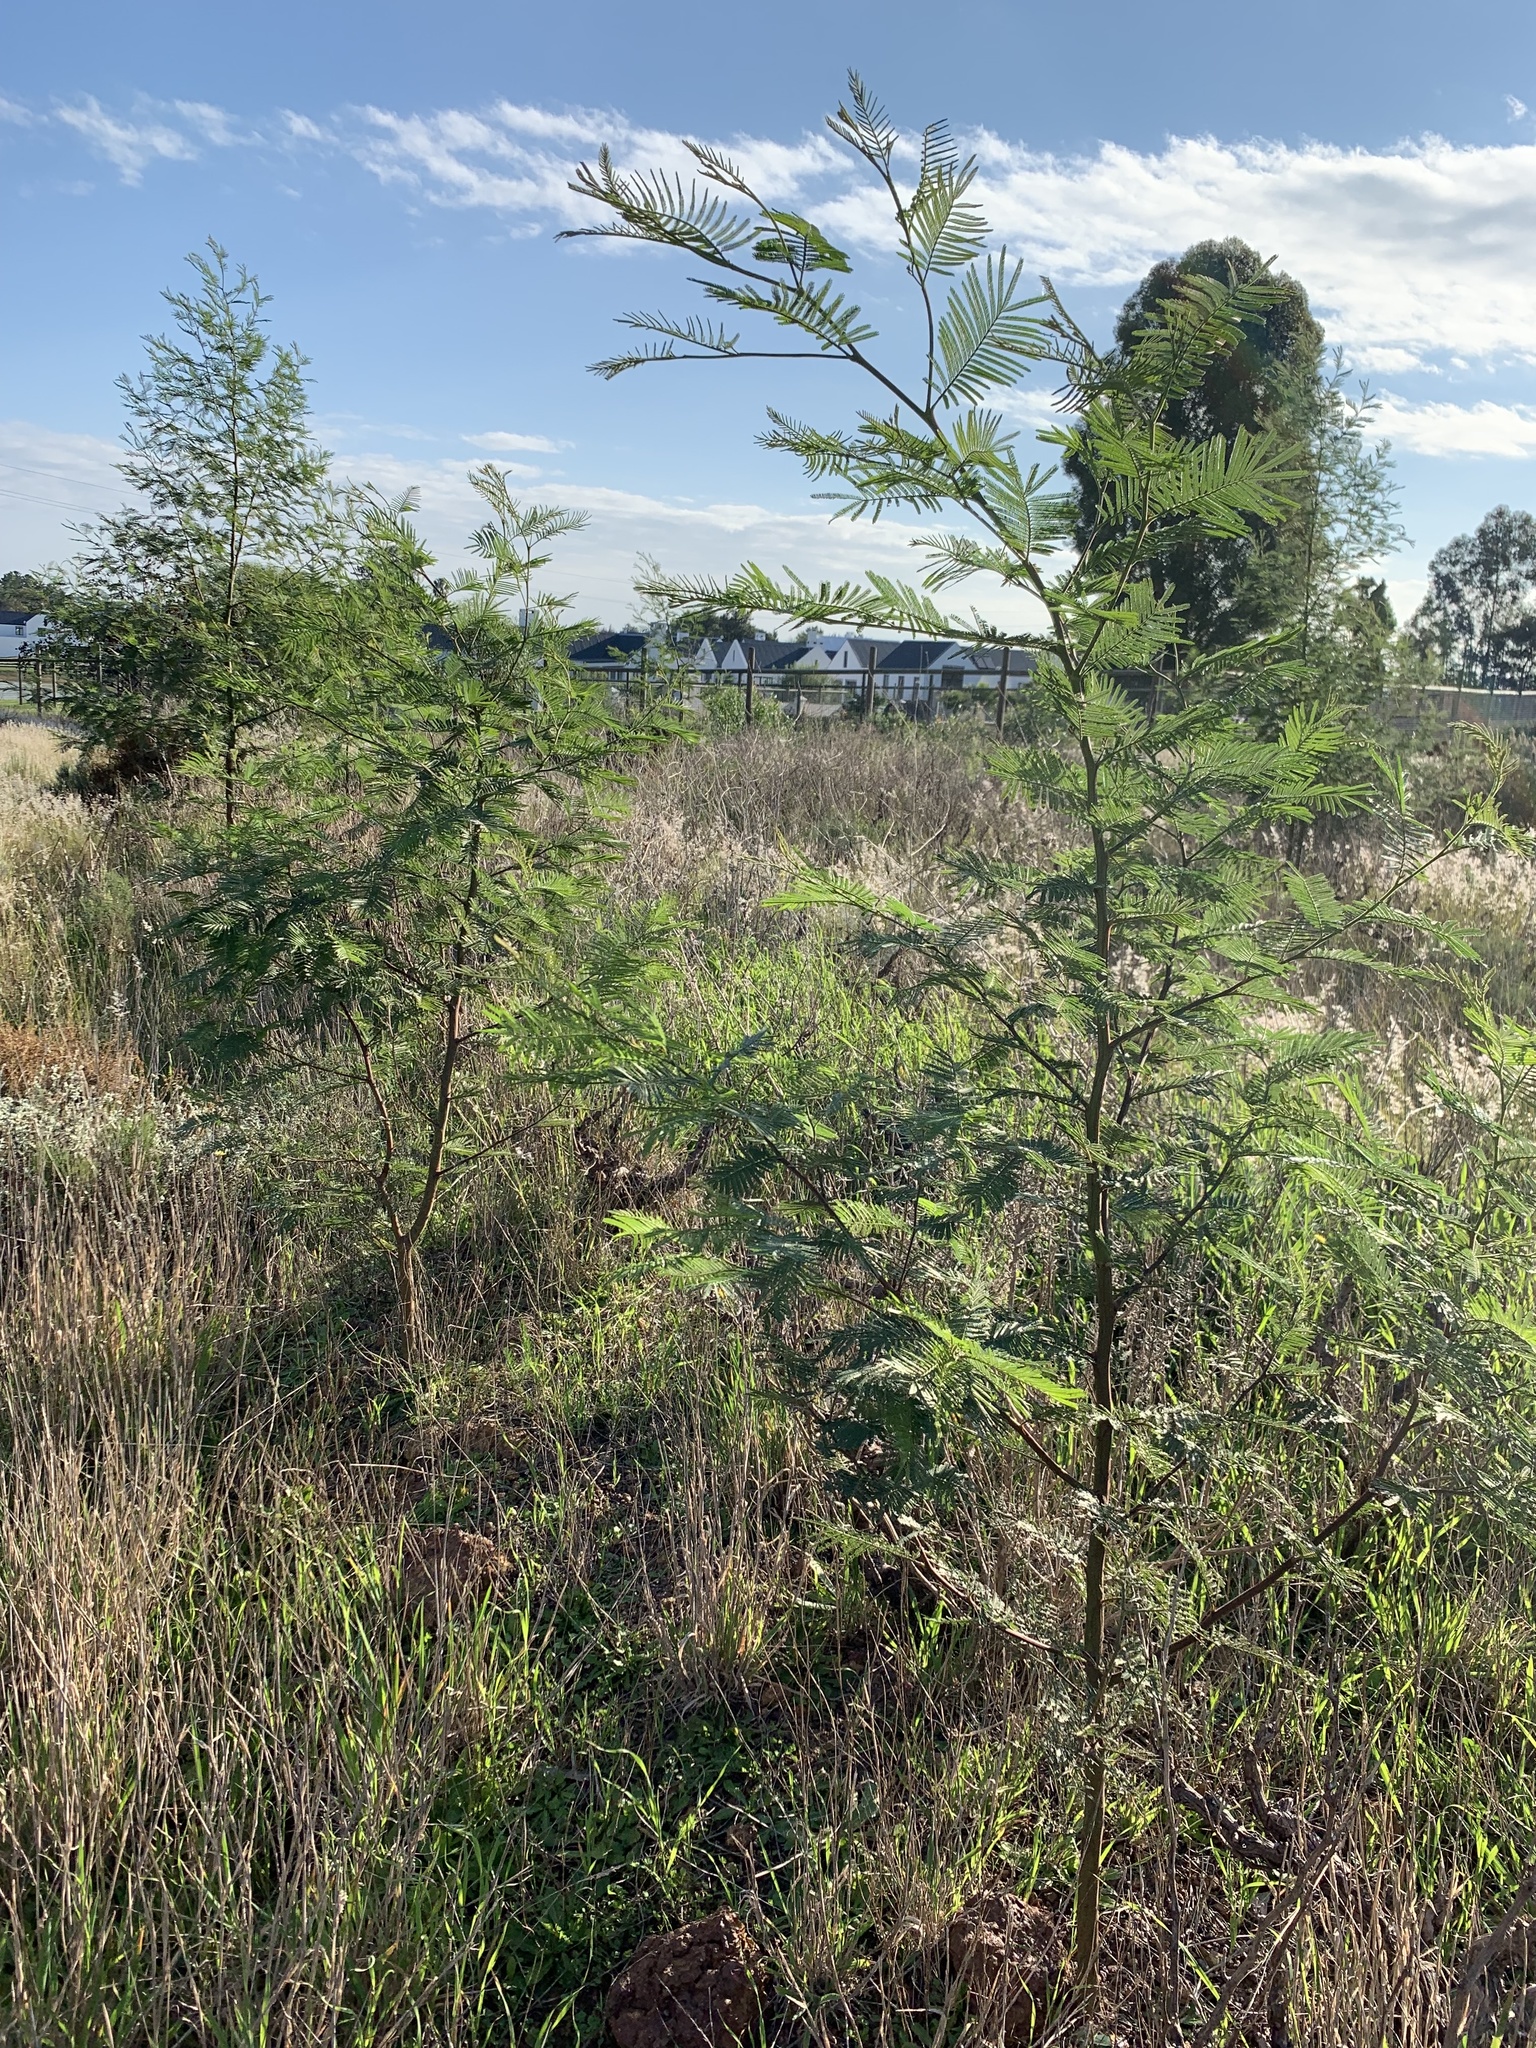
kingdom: Plantae
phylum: Tracheophyta
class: Magnoliopsida
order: Fabales
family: Fabaceae
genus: Acacia
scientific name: Acacia mearnsii
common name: Black wattle
